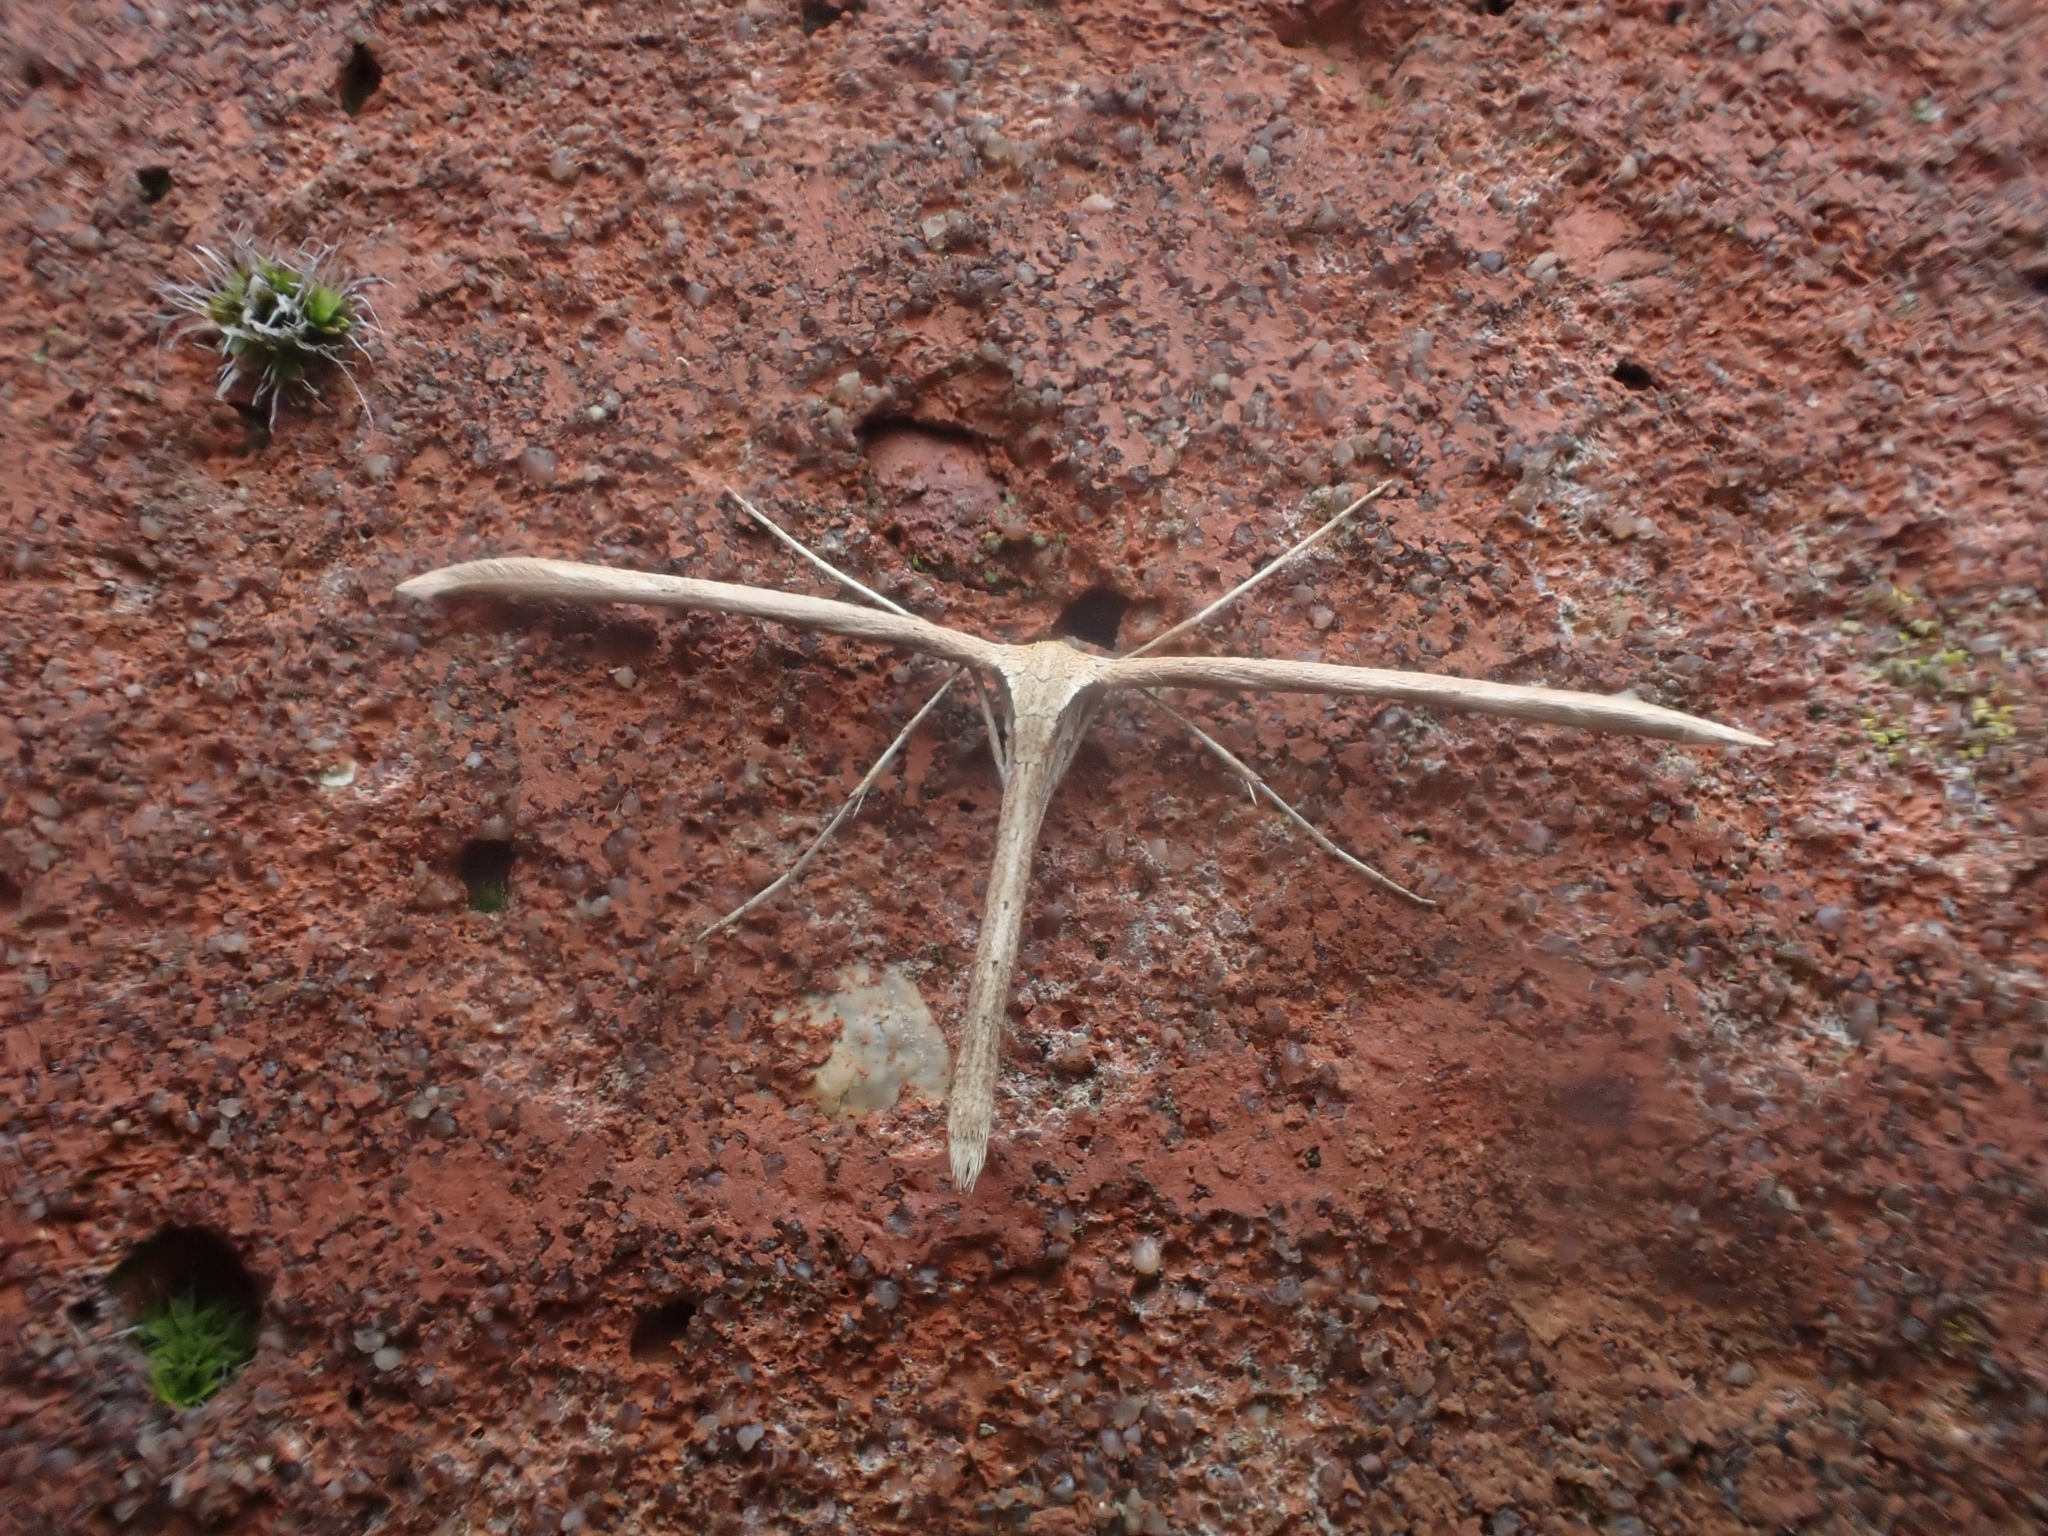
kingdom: Animalia
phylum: Arthropoda
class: Insecta
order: Lepidoptera
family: Pterophoridae
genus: Emmelina
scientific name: Emmelina monodactyla
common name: Common plume
